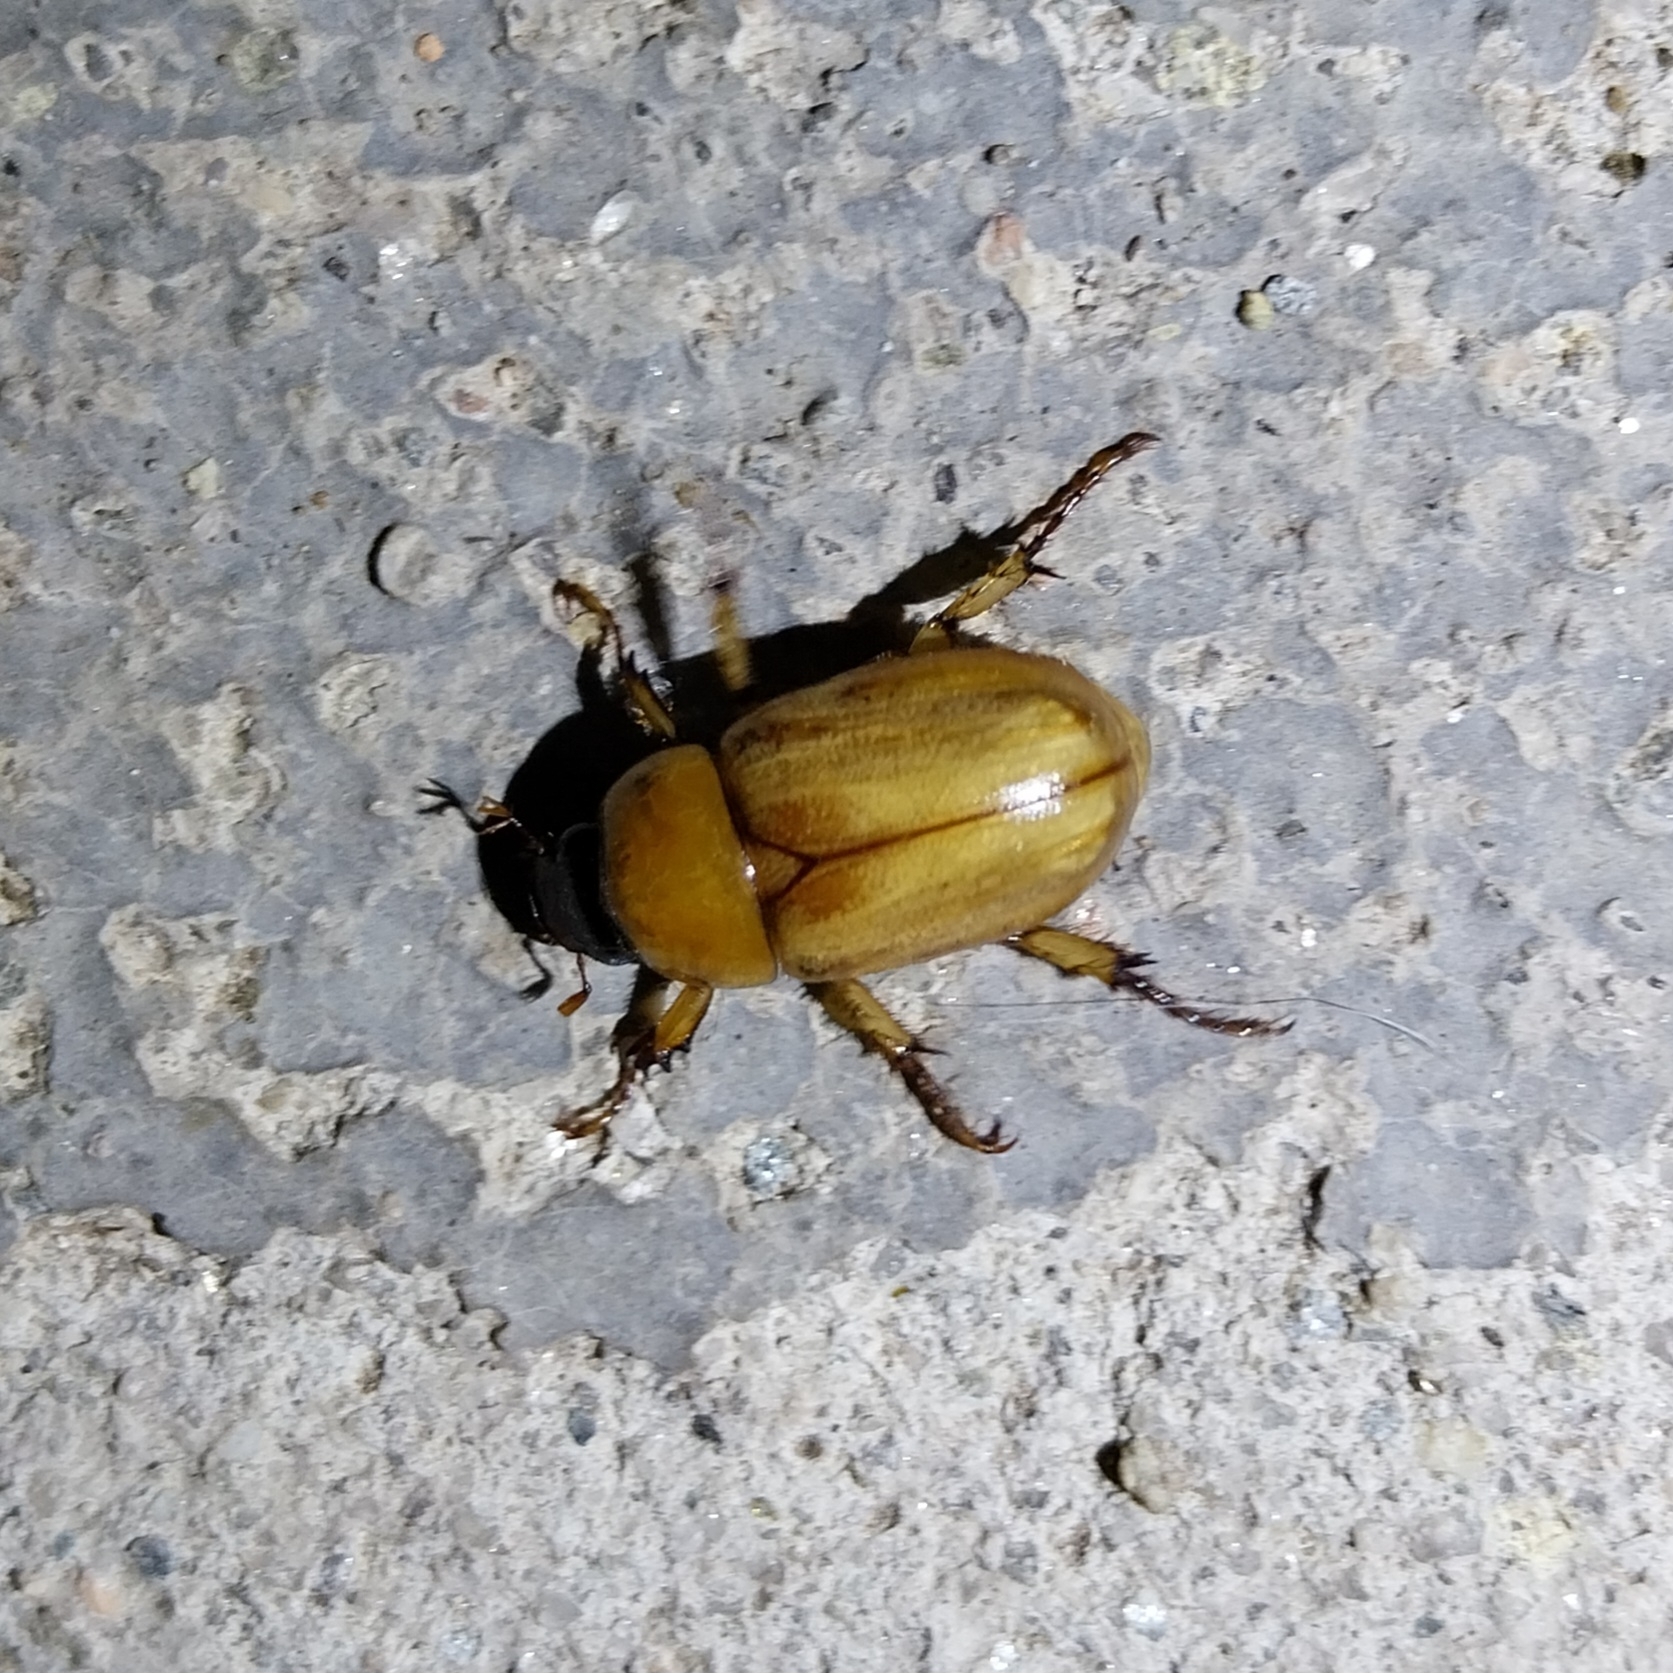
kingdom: Animalia
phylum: Arthropoda
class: Insecta
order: Coleoptera
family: Scarabaeidae
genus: Cyclocephala
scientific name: Cyclocephala putrida
